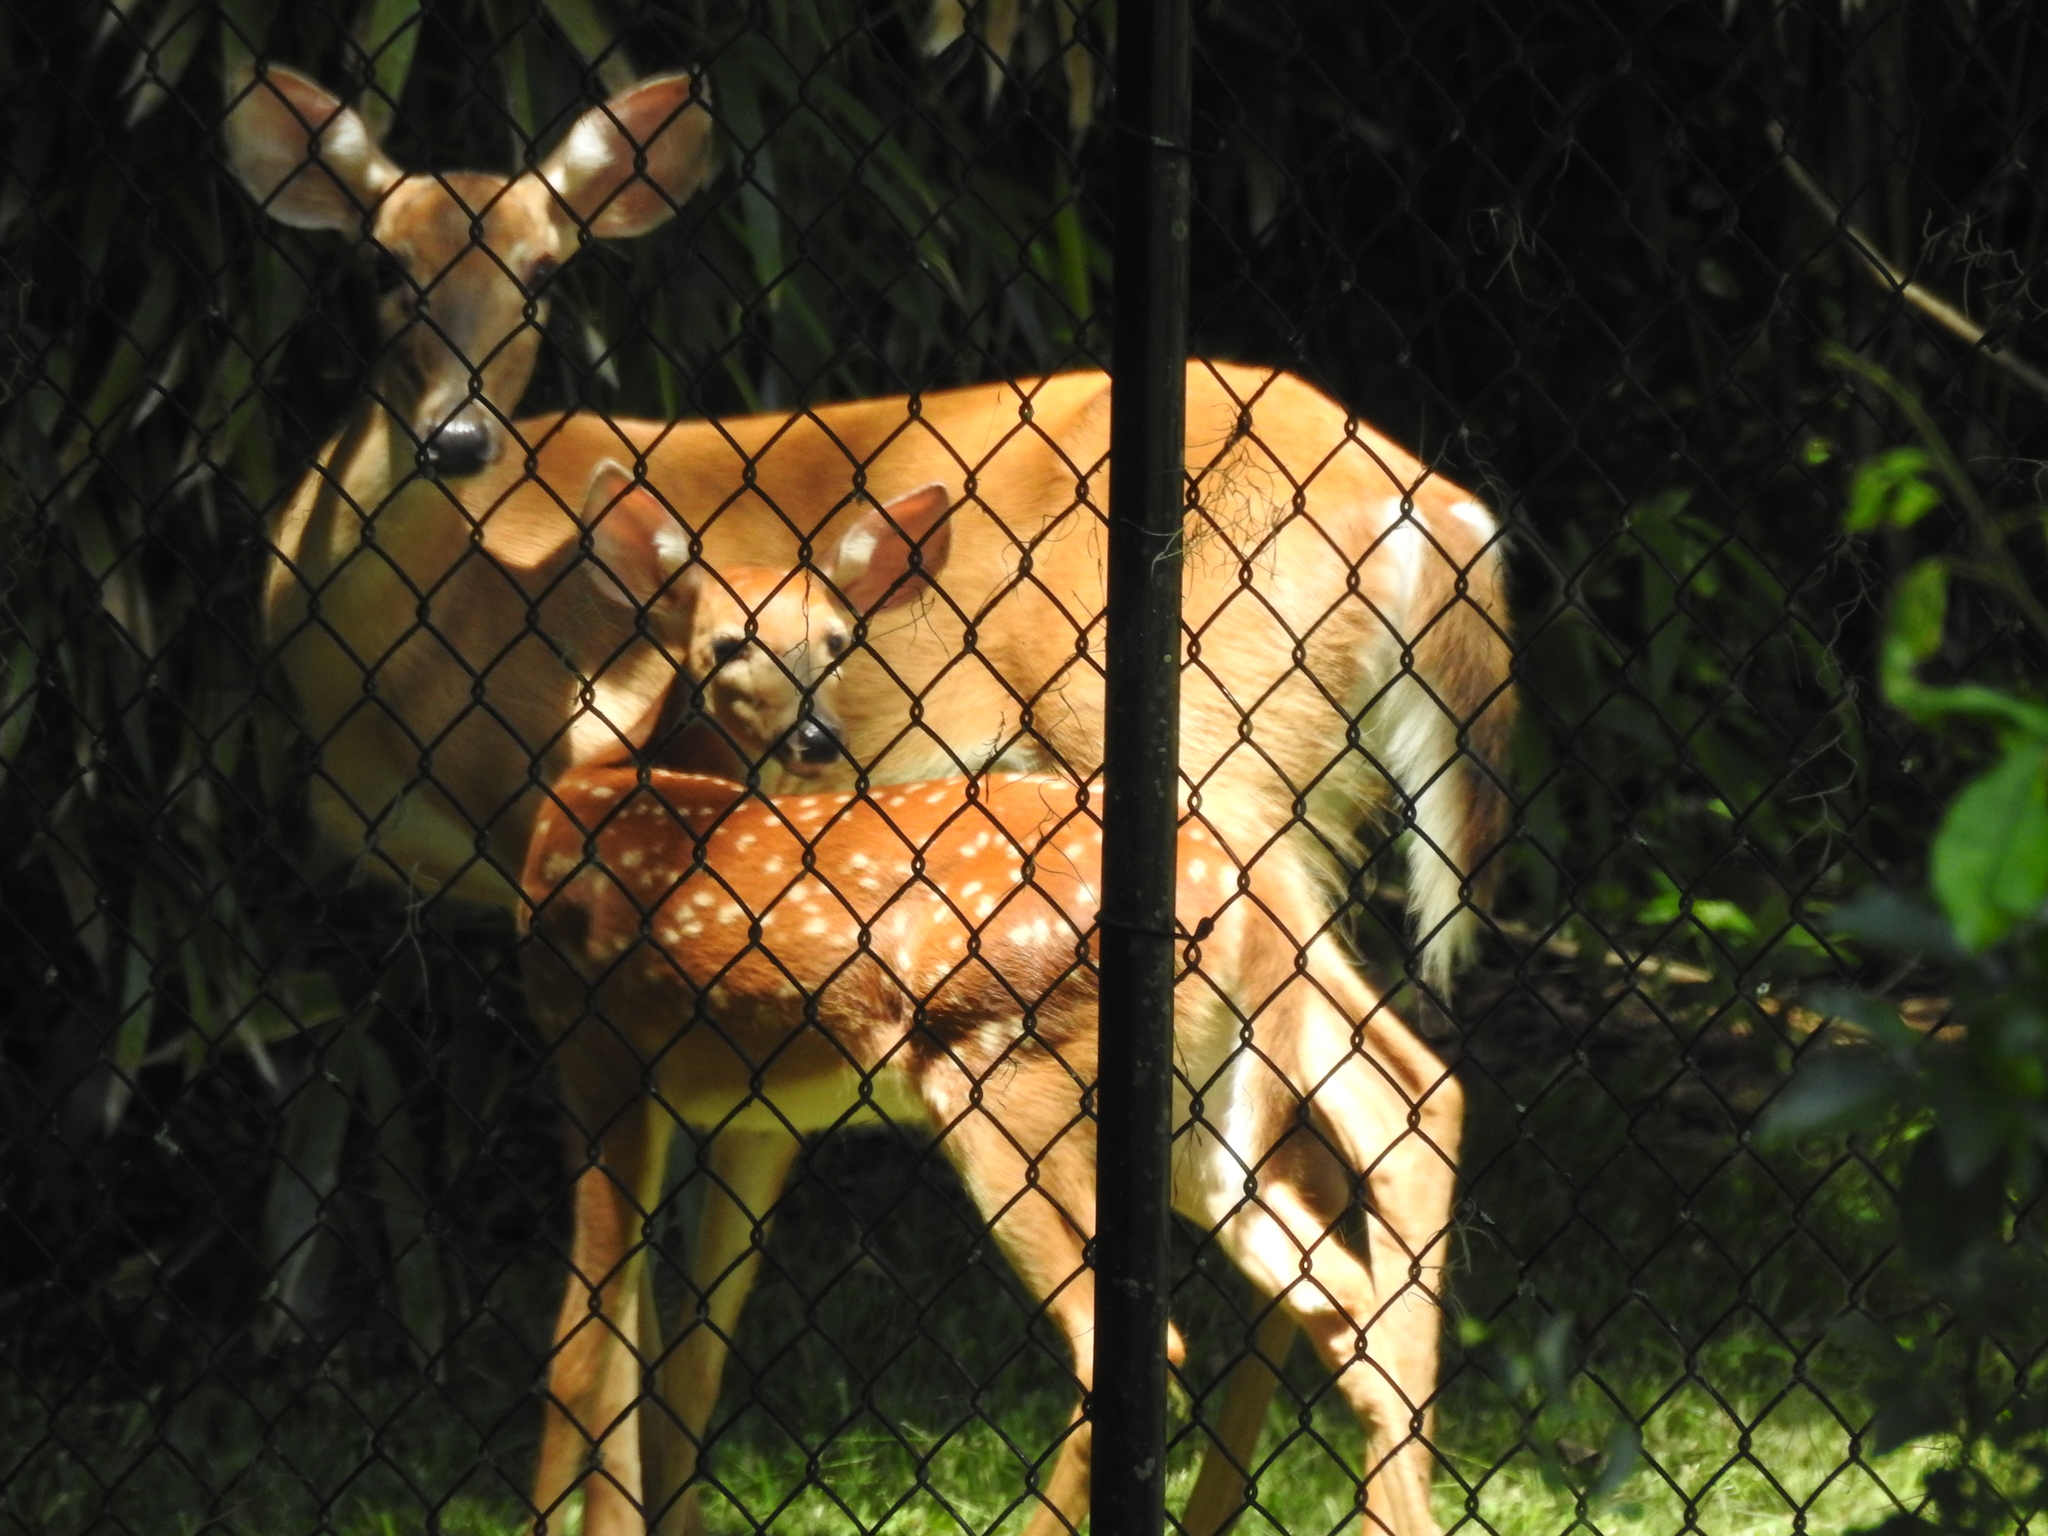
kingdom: Animalia
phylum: Chordata
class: Mammalia
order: Artiodactyla
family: Cervidae
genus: Odocoileus
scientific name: Odocoileus virginianus
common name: White-tailed deer
